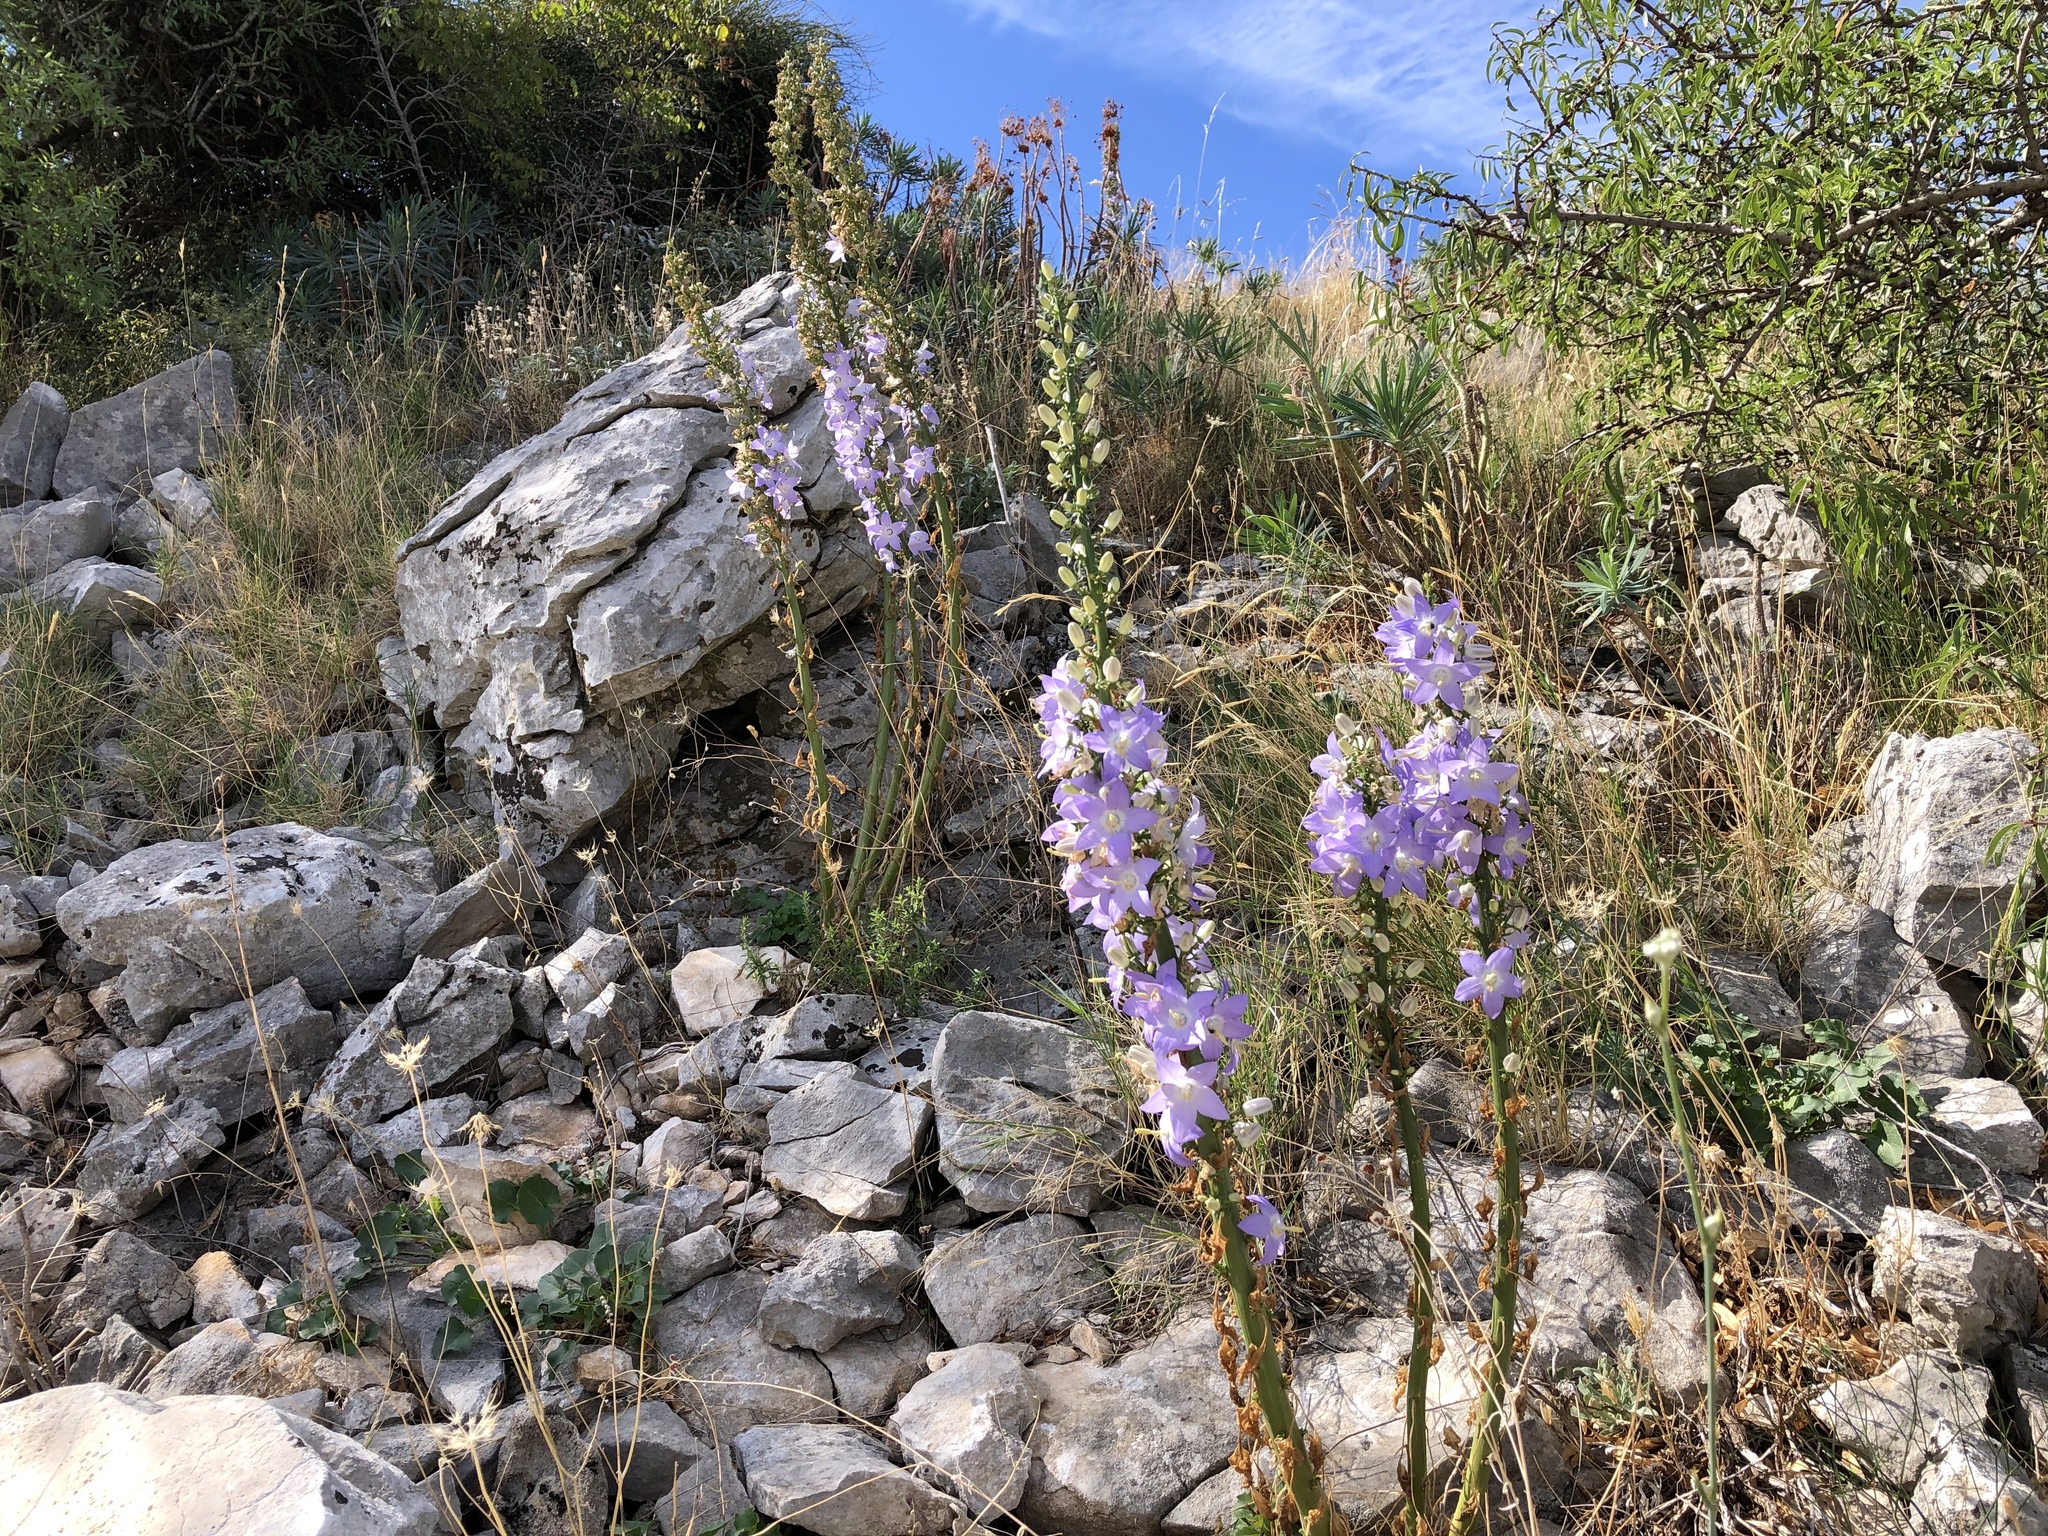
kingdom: Plantae
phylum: Tracheophyta
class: Magnoliopsida
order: Asterales
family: Campanulaceae
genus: Campanula
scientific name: Campanula pyramidalis
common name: Chimney bellflower
